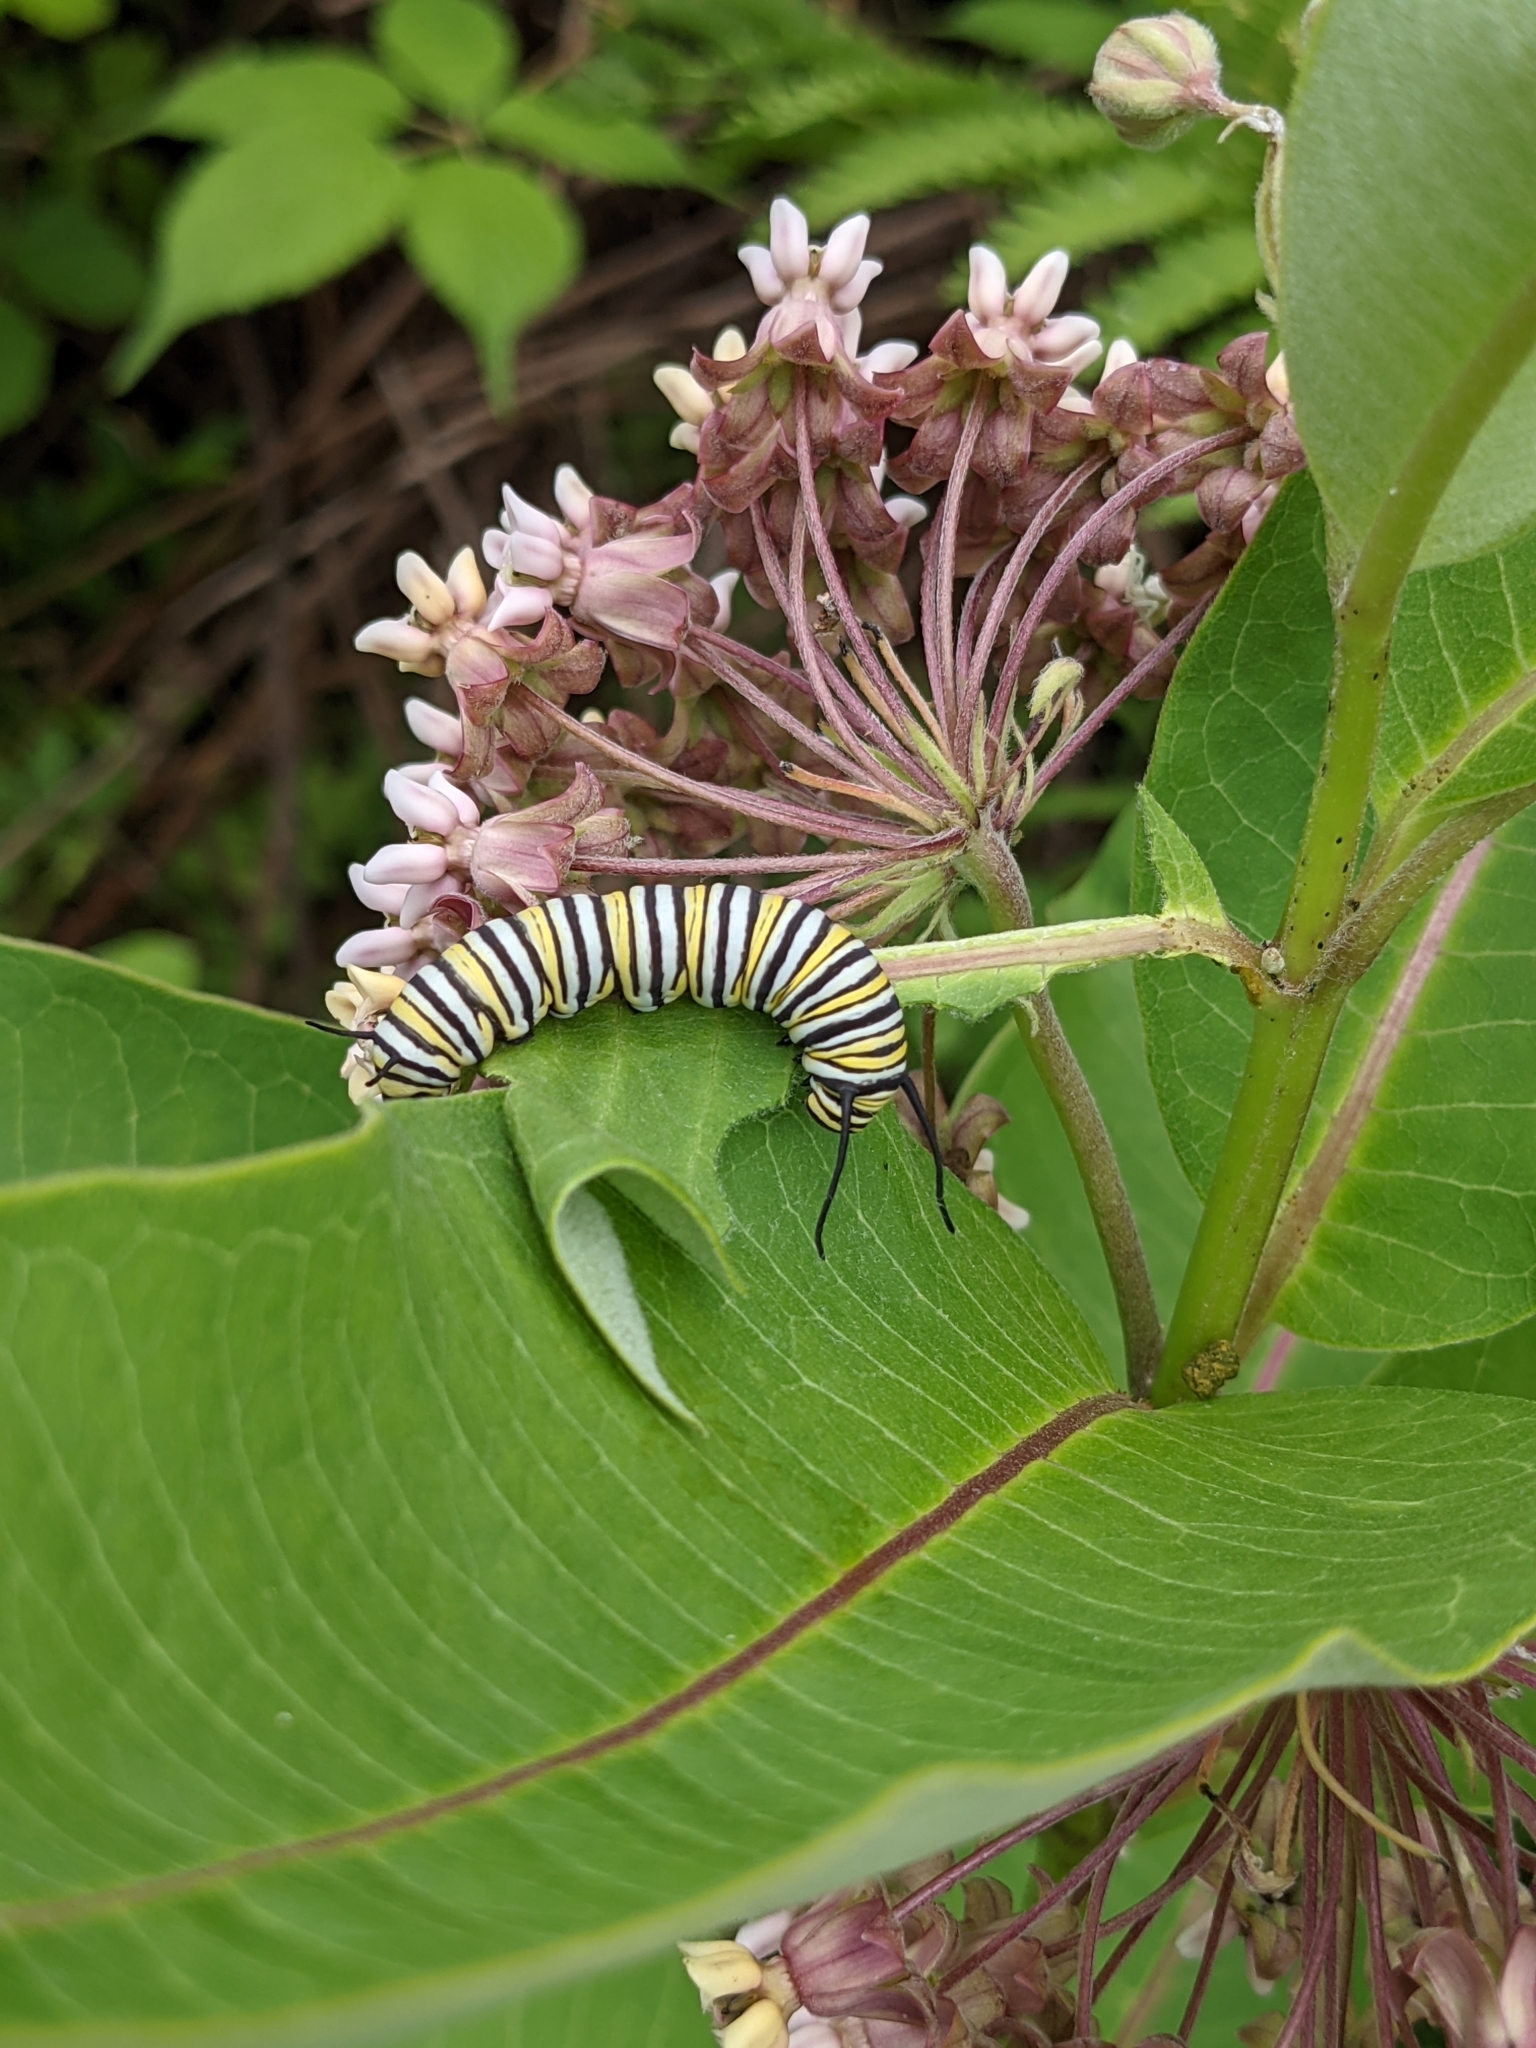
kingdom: Animalia
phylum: Arthropoda
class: Insecta
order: Lepidoptera
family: Nymphalidae
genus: Danaus
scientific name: Danaus plexippus
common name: Monarch
